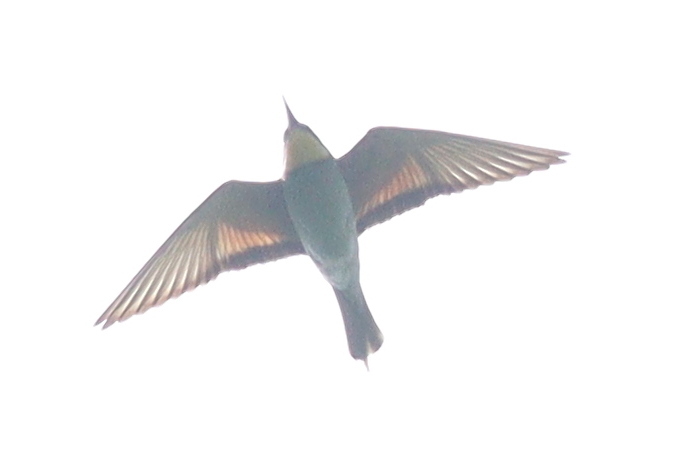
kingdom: Animalia
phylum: Chordata
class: Aves
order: Coraciiformes
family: Meropidae
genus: Merops
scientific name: Merops apiaster
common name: European bee-eater
